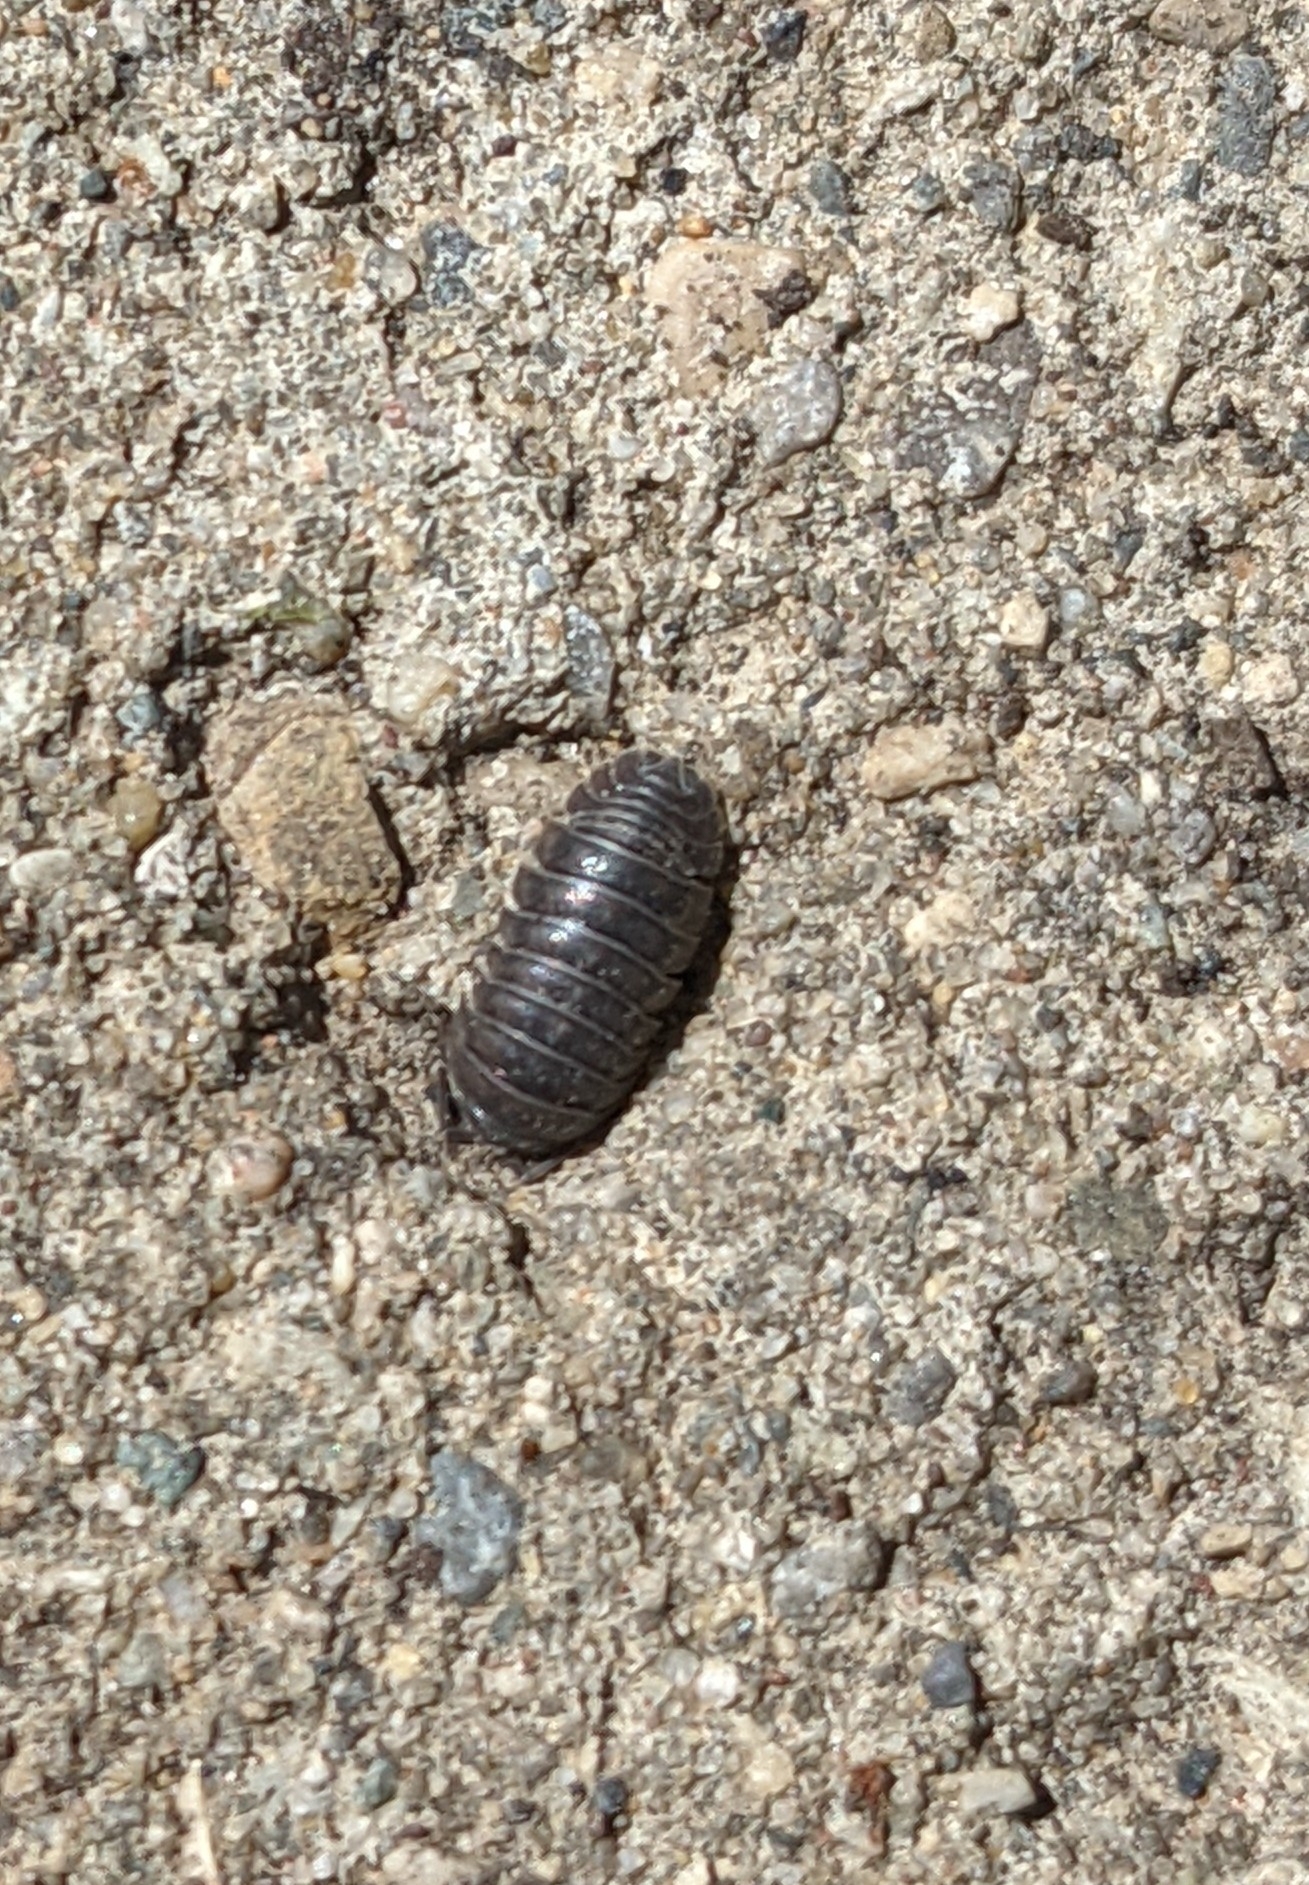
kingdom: Animalia
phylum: Arthropoda
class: Malacostraca
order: Isopoda
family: Armadillidiidae
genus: Armadillidium
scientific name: Armadillidium nasatum
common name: Isopod
